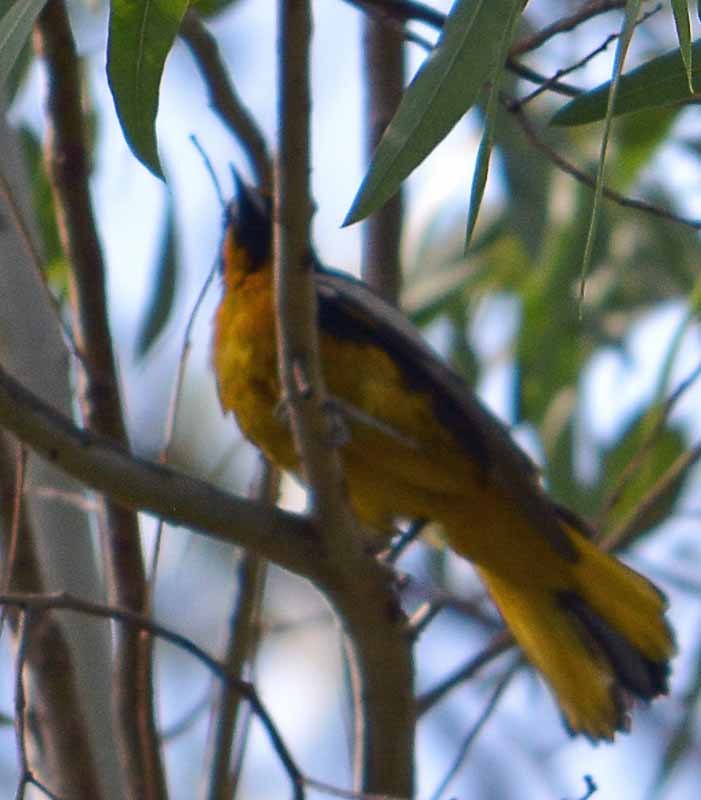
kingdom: Animalia
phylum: Chordata
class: Aves
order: Passeriformes
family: Icteridae
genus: Icterus
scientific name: Icterus abeillei
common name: Black-backed oriole
